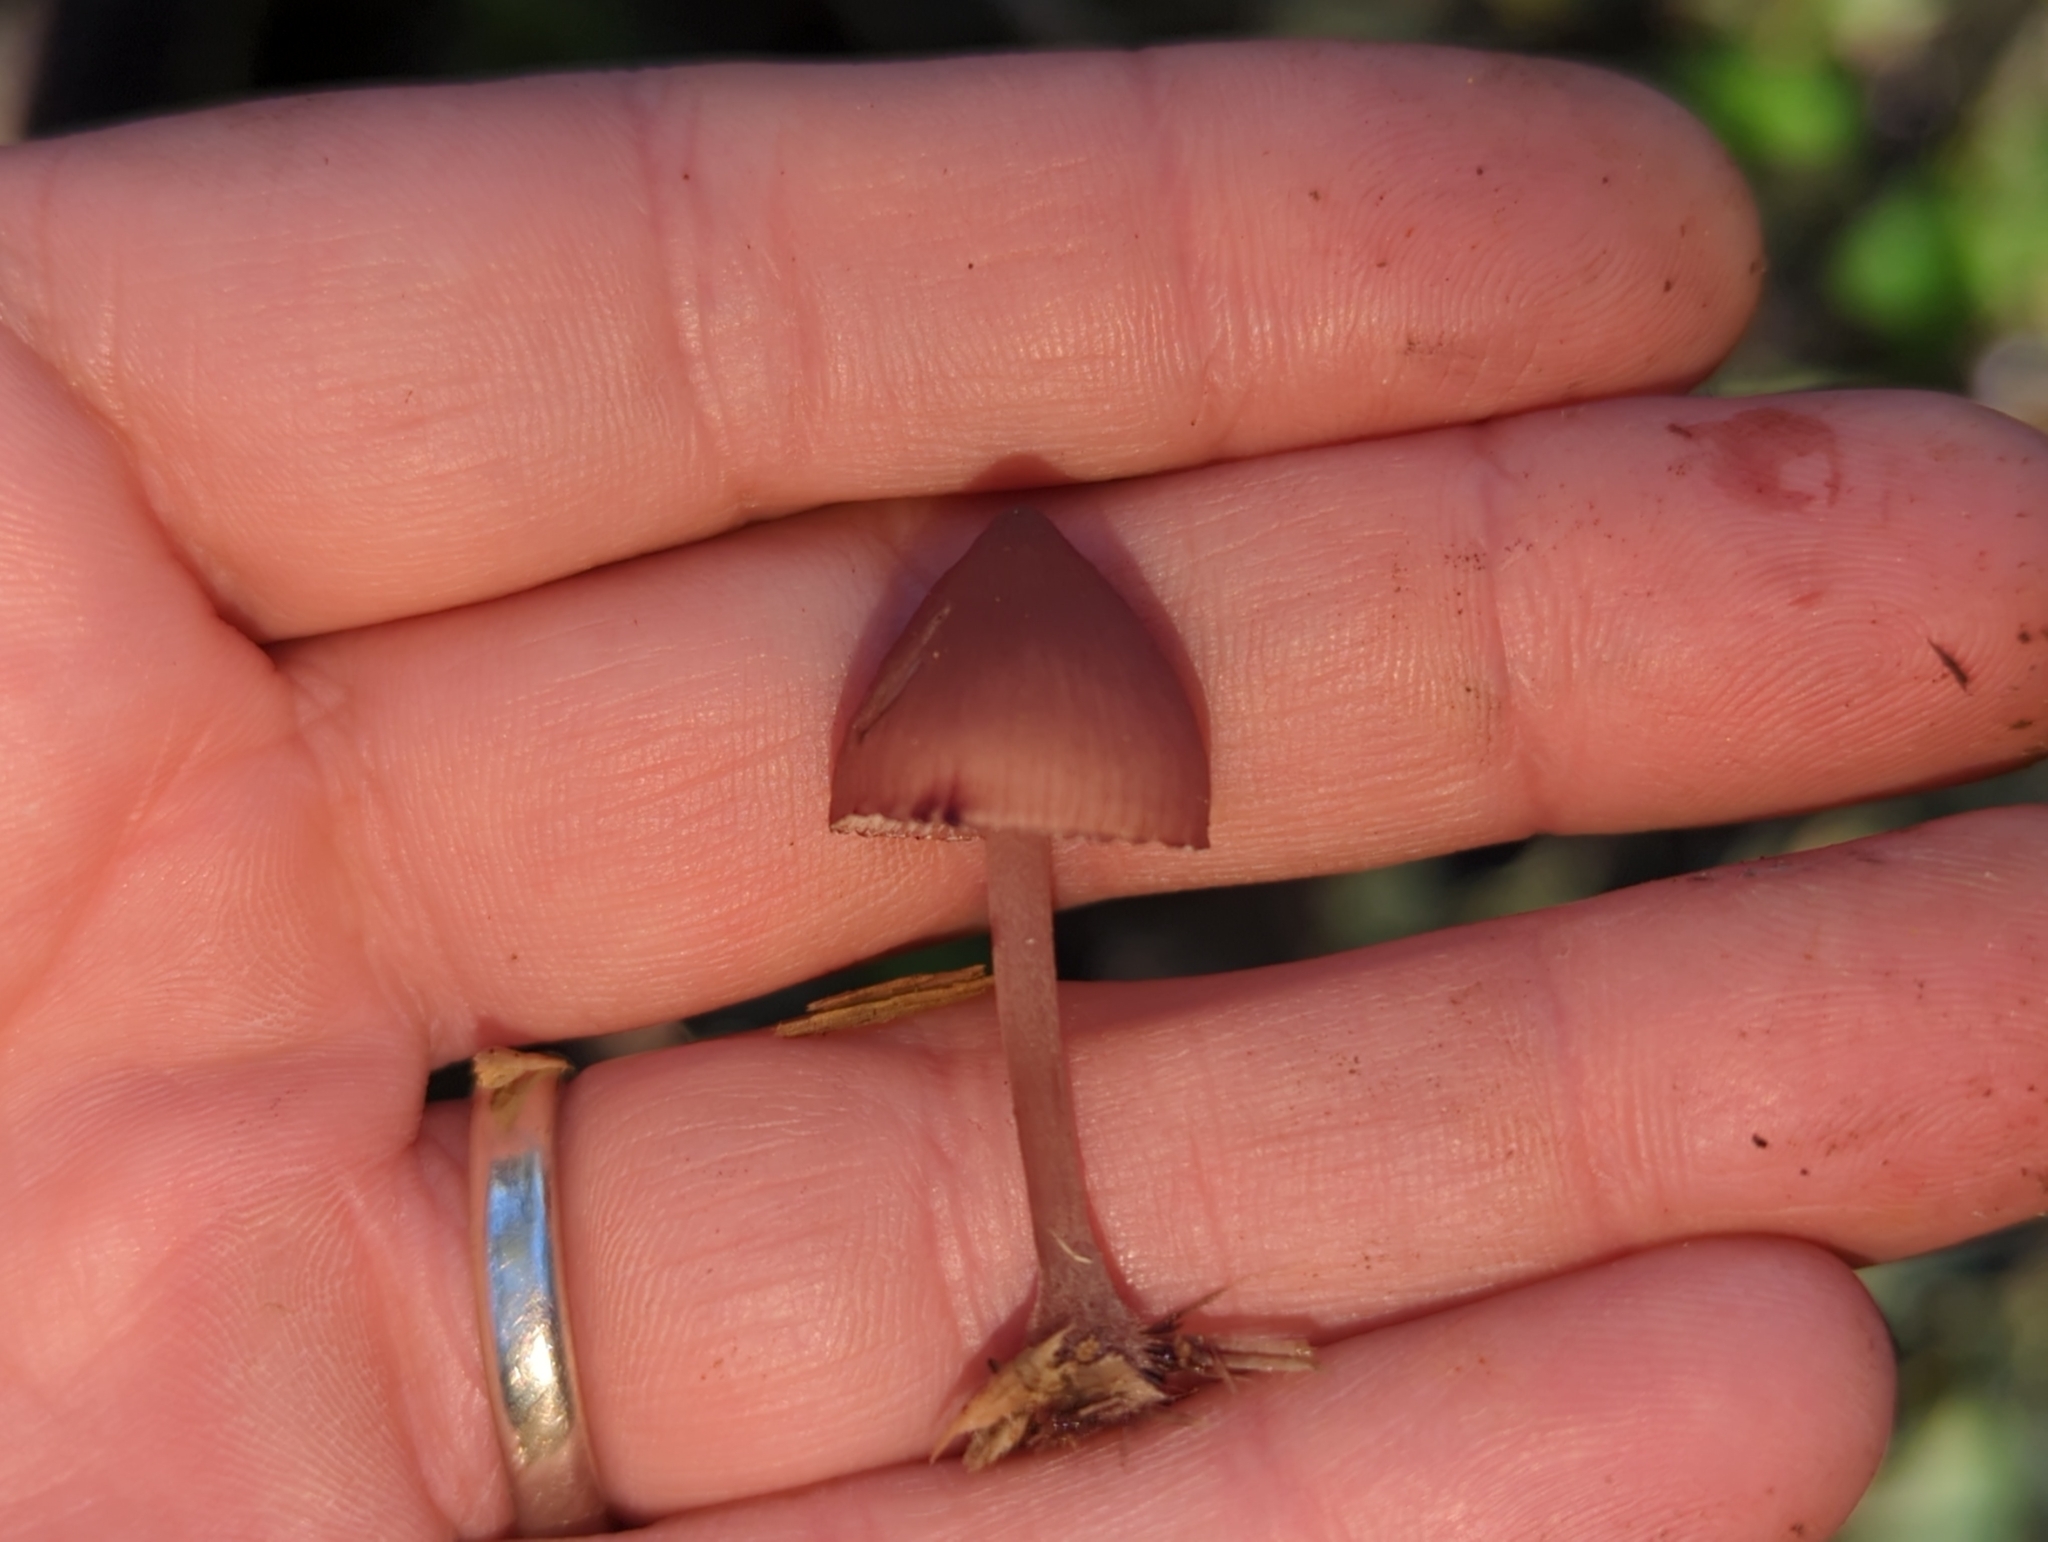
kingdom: Fungi
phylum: Basidiomycota
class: Agaricomycetes
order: Agaricales
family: Mycenaceae
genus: Mycena
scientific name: Mycena haematopus
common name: Burgundydrop bonnet
